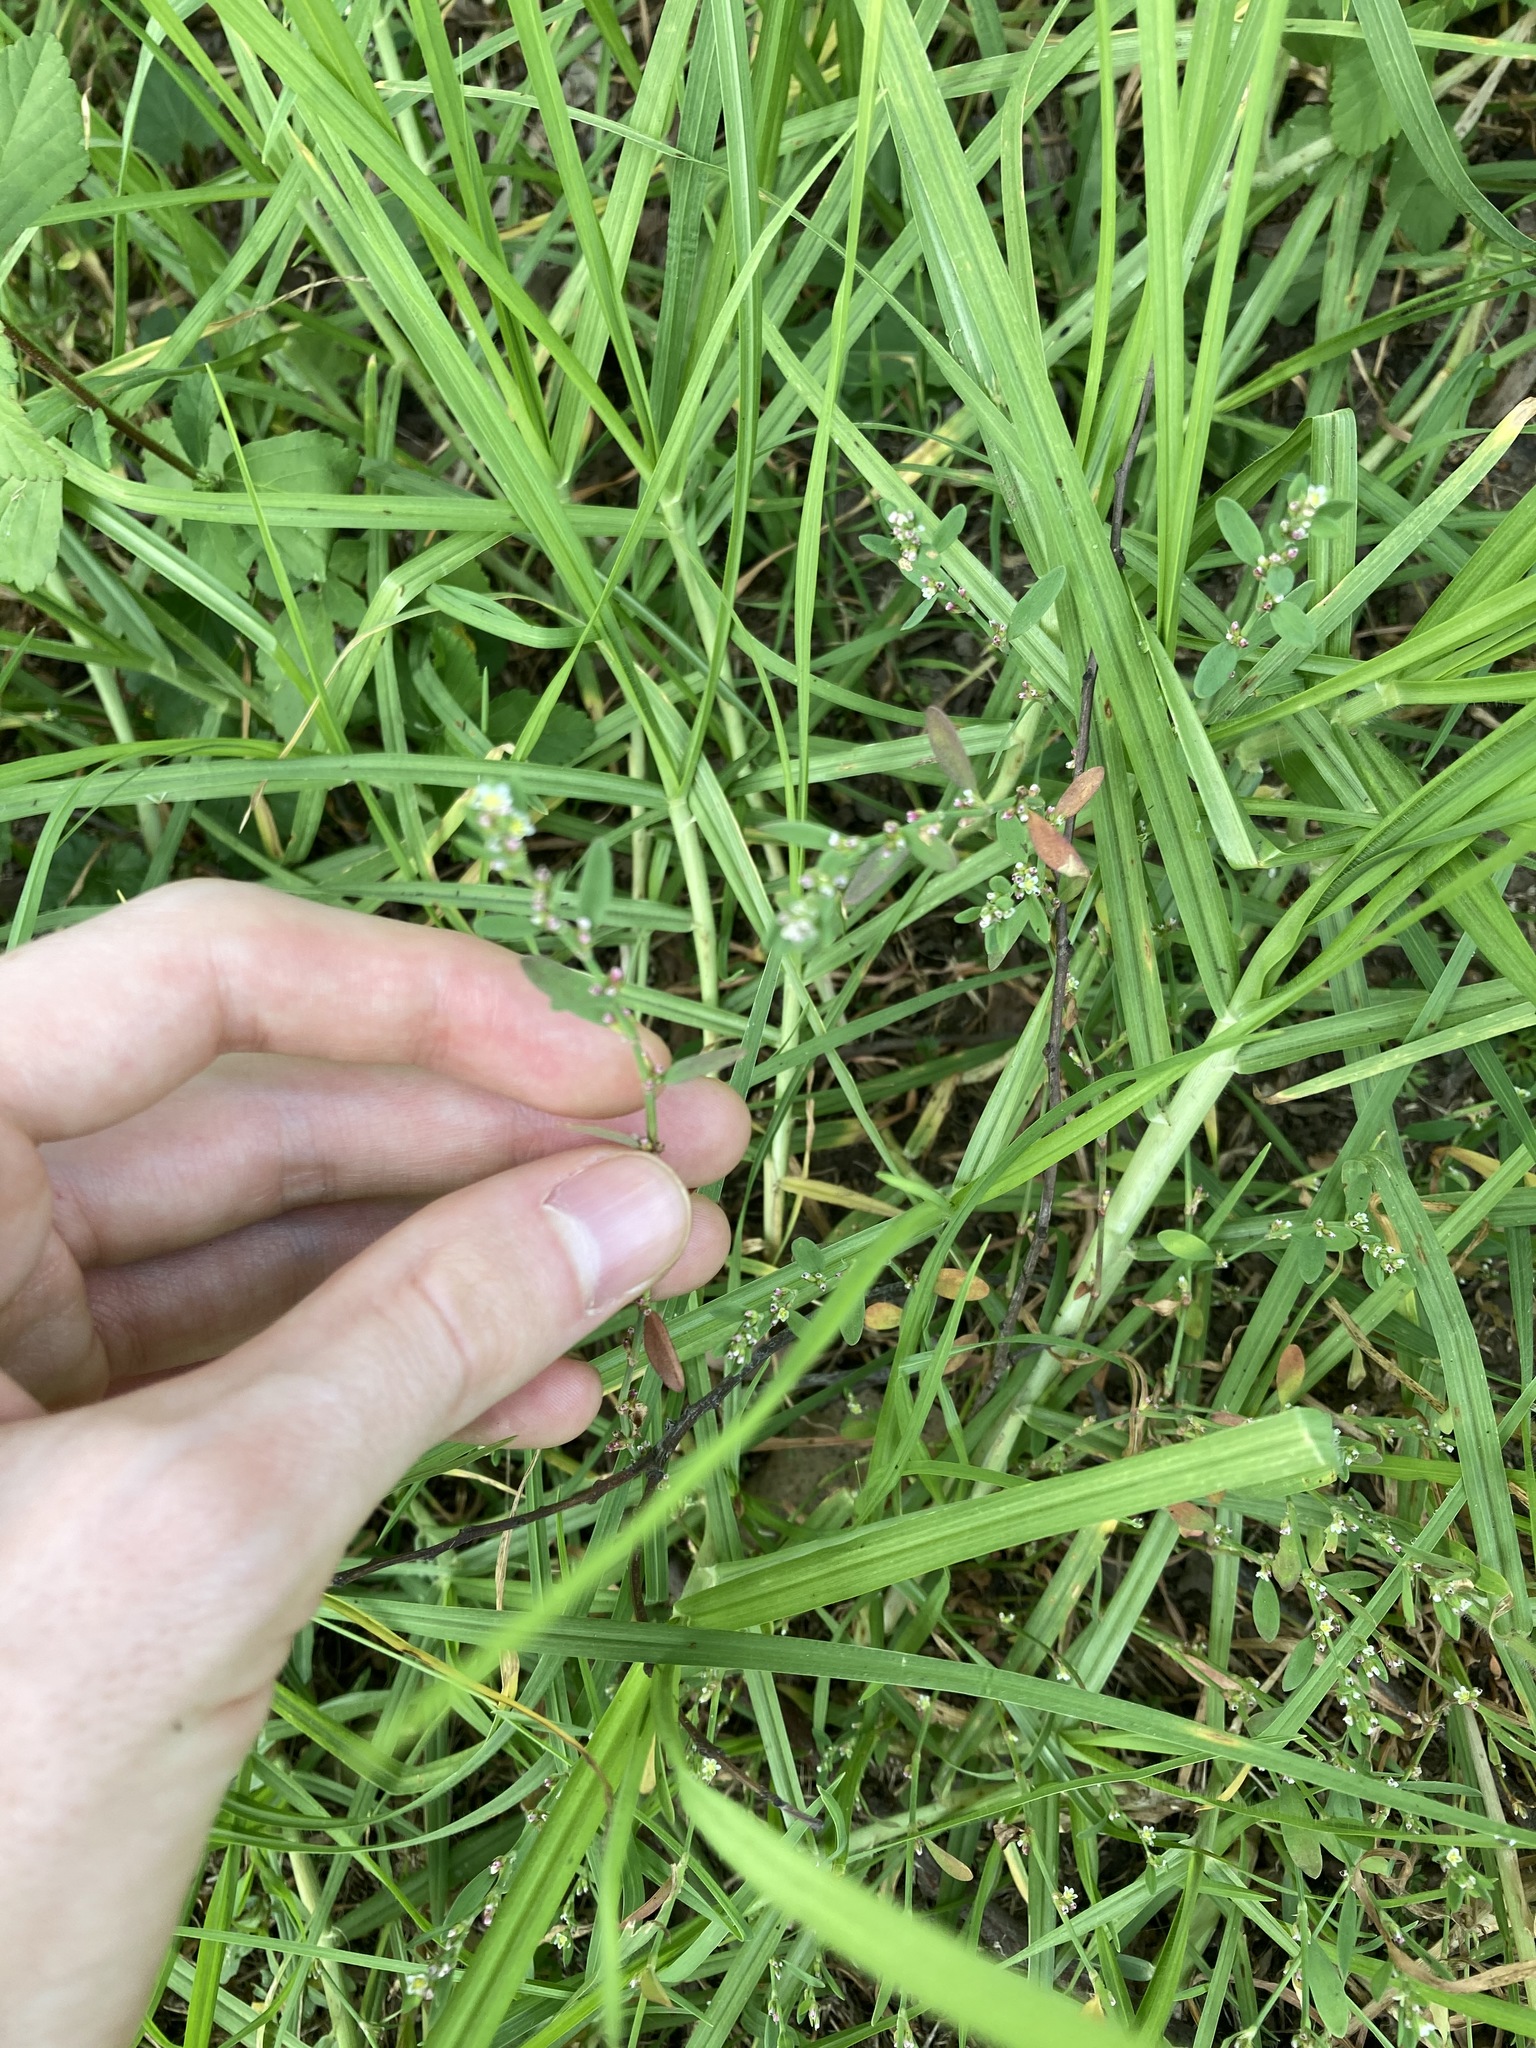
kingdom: Plantae
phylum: Tracheophyta
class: Magnoliopsida
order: Caryophyllales
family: Polygonaceae
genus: Polygonum
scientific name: Polygonum aviculare
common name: Prostrate knotweed
